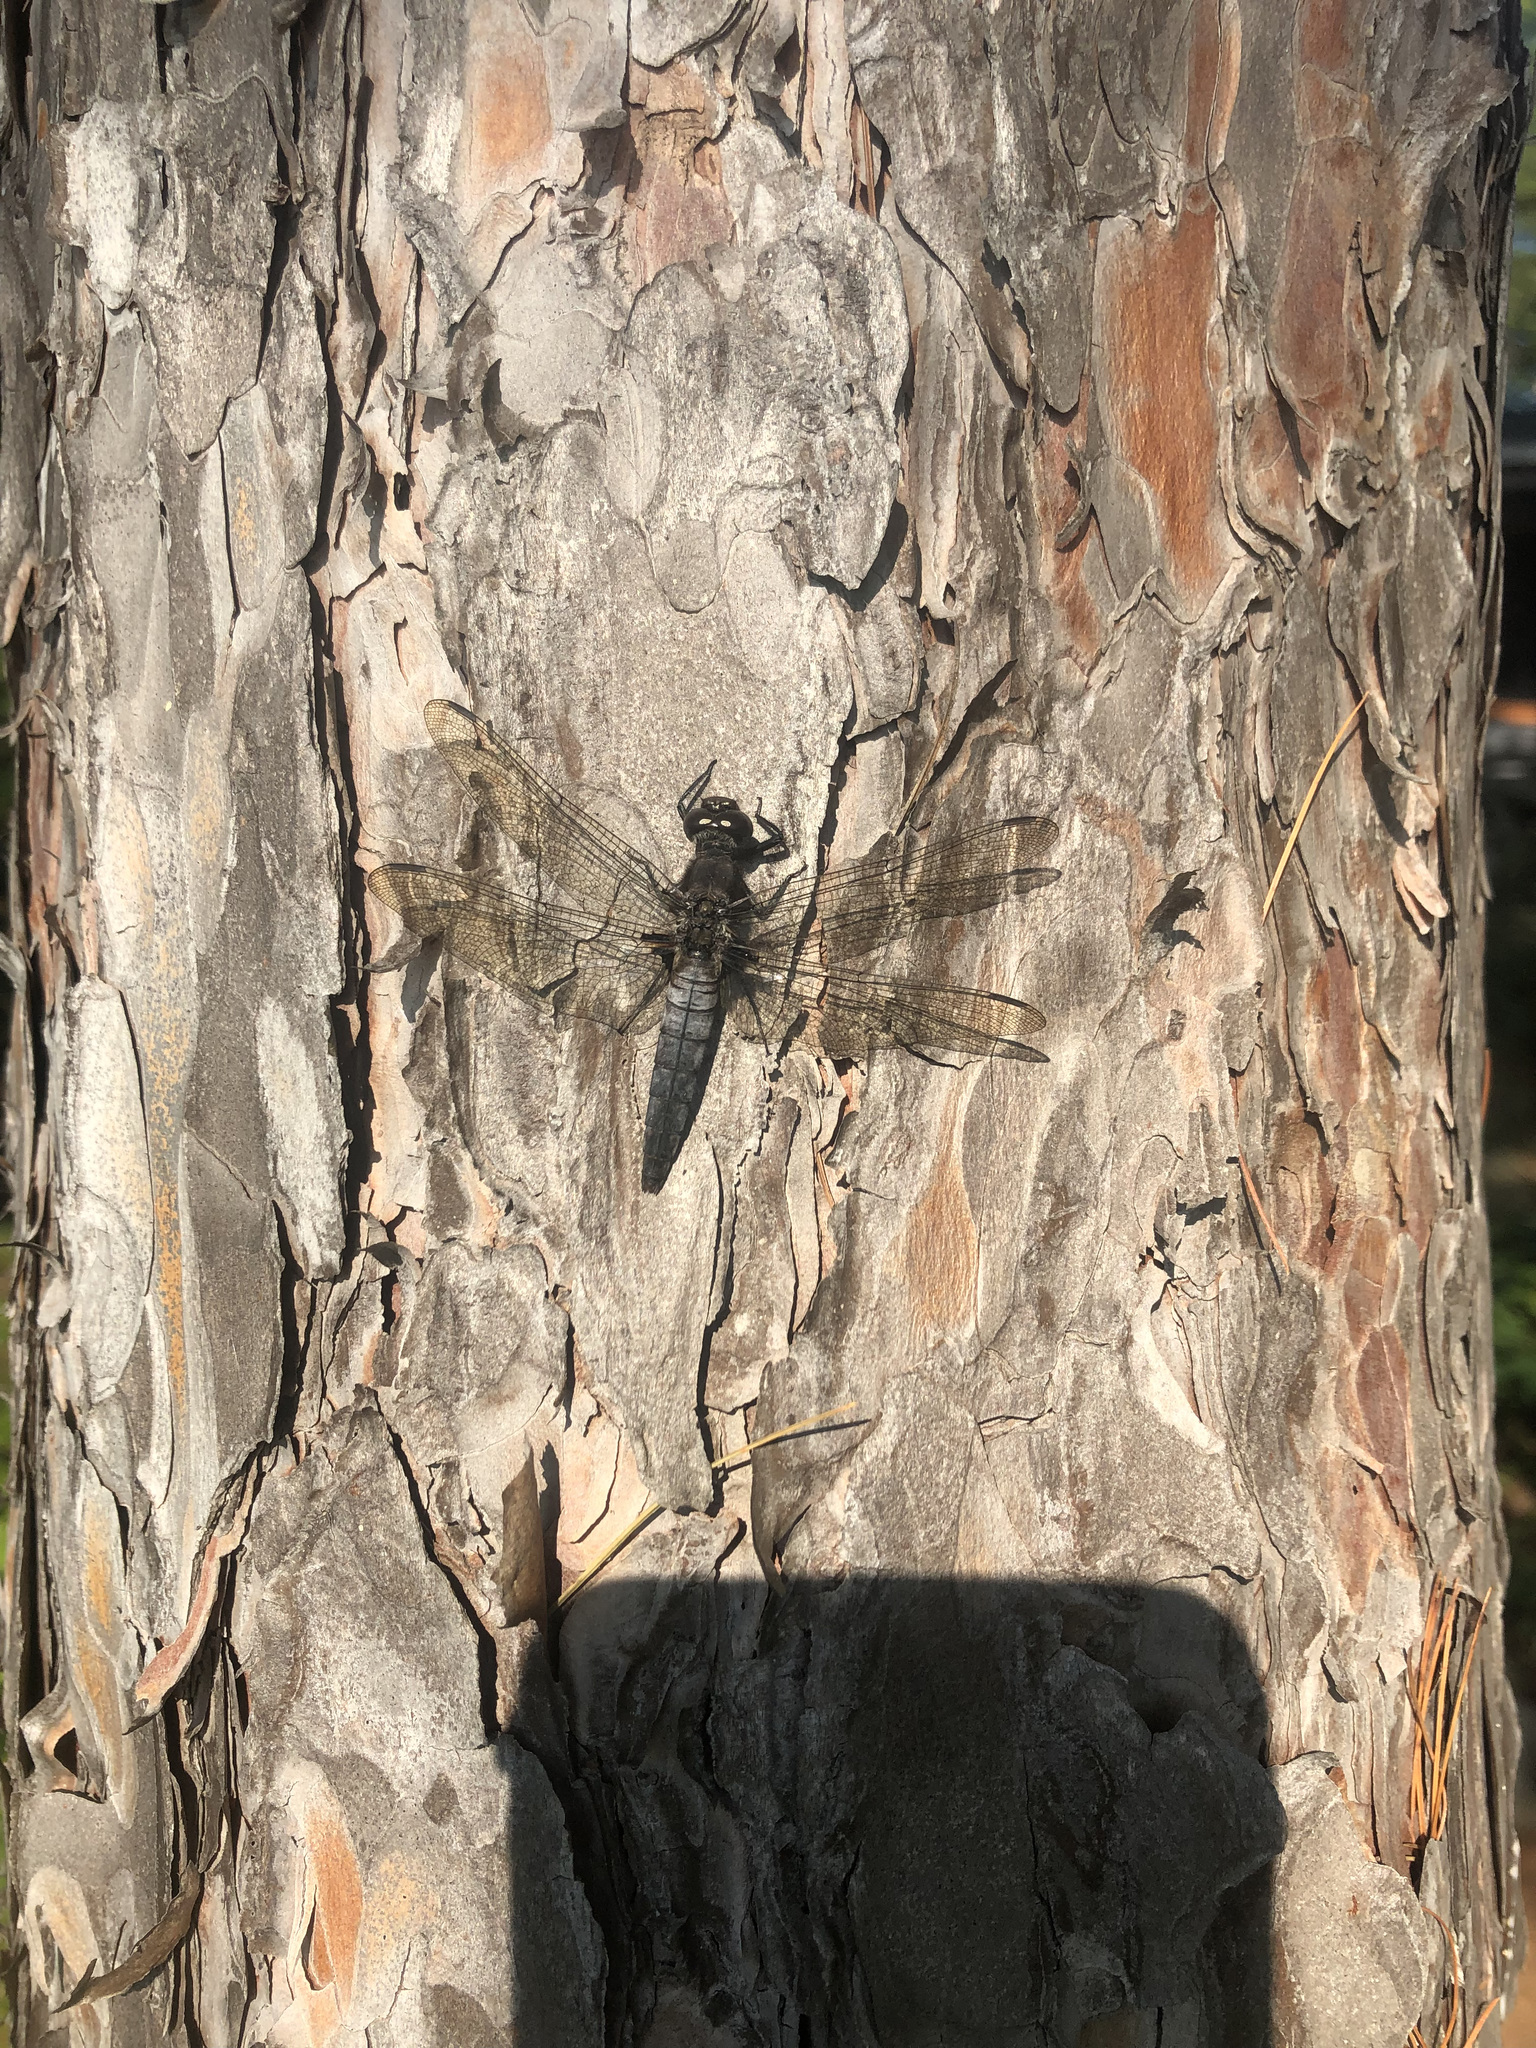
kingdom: Animalia
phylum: Arthropoda
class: Insecta
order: Odonata
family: Libellulidae
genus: Ladona
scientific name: Ladona julia
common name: Chalk-fronted corporal
